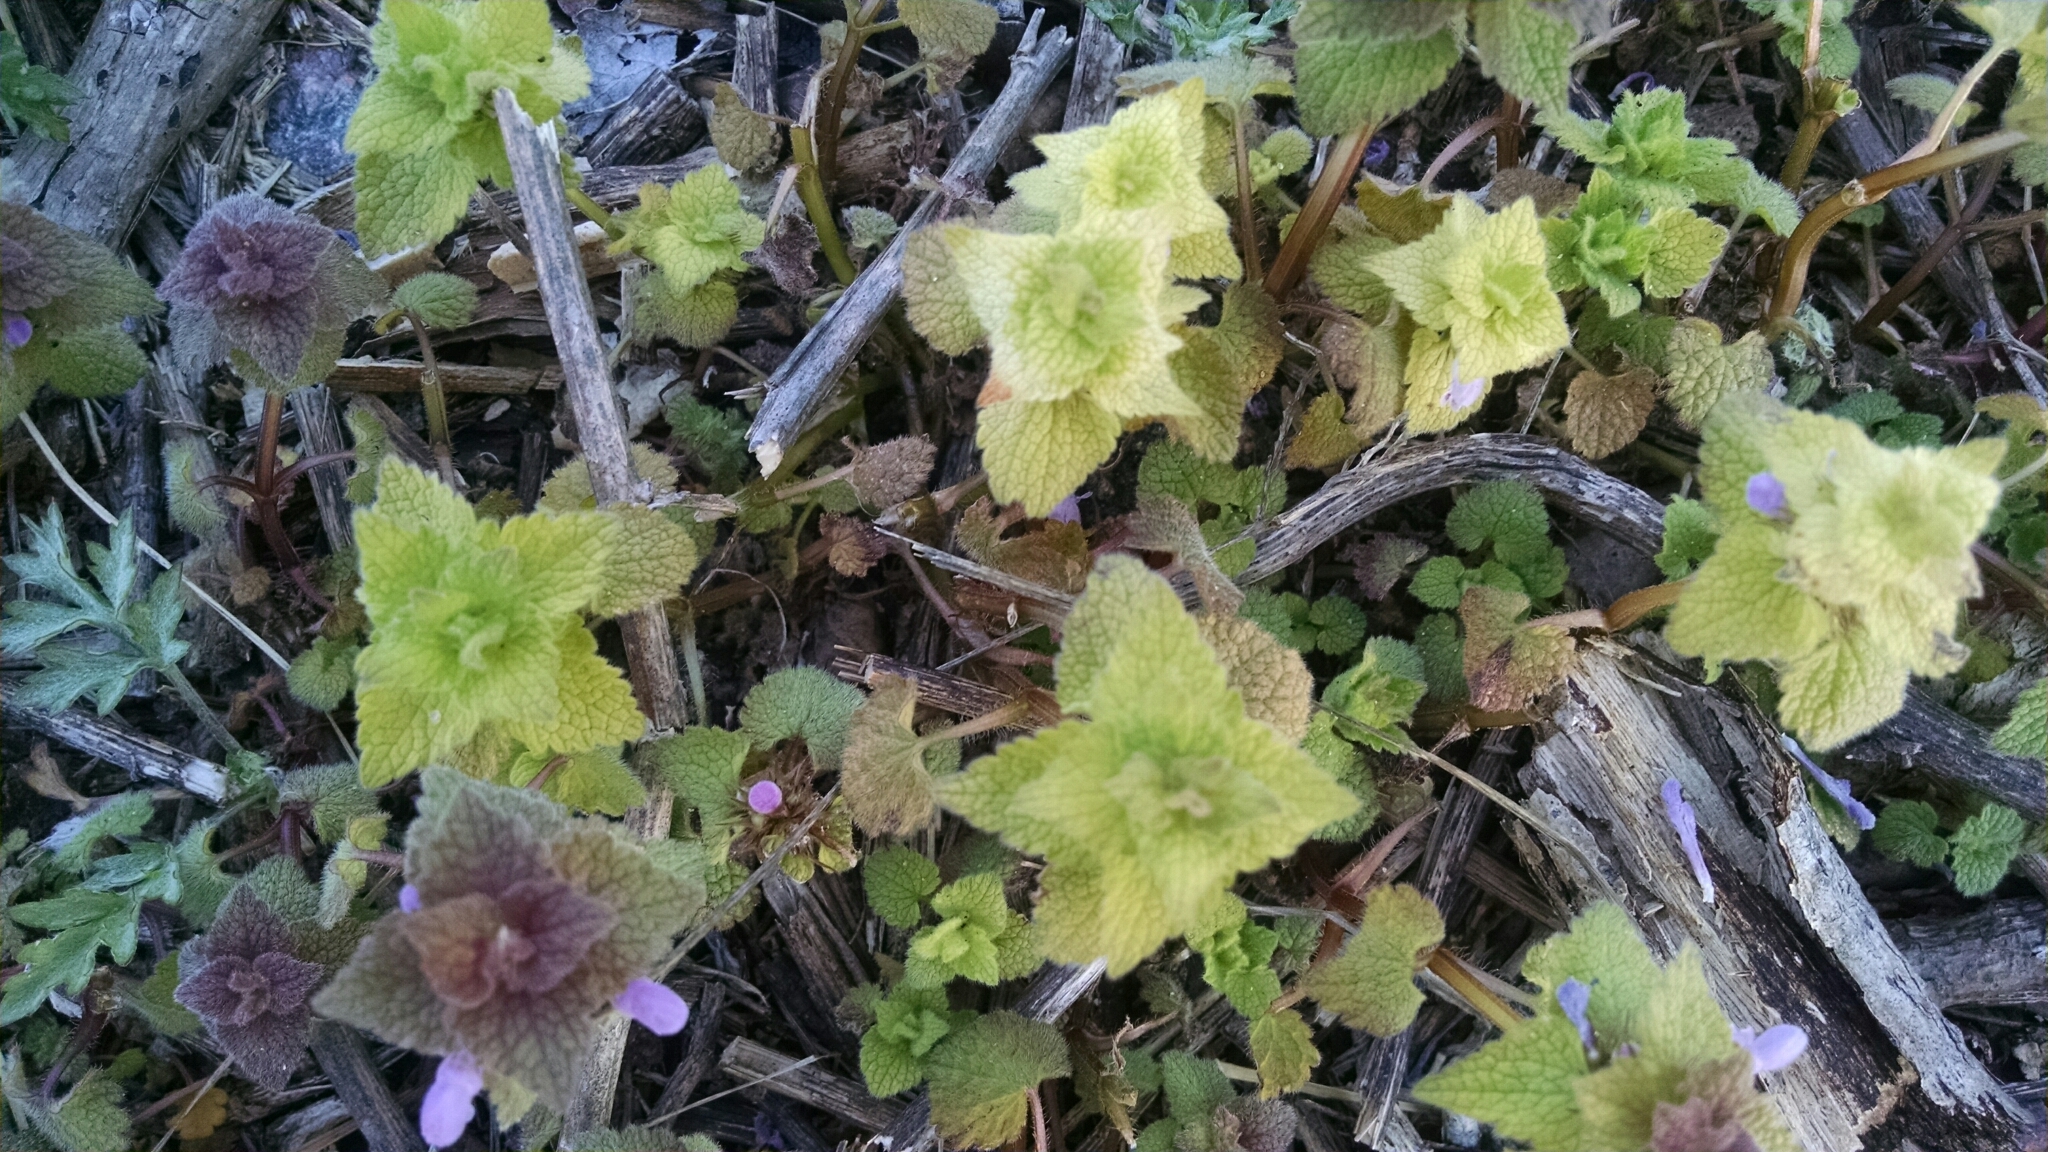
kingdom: Plantae
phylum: Tracheophyta
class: Magnoliopsida
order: Lamiales
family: Lamiaceae
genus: Lamium
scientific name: Lamium purpureum
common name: Red dead-nettle
